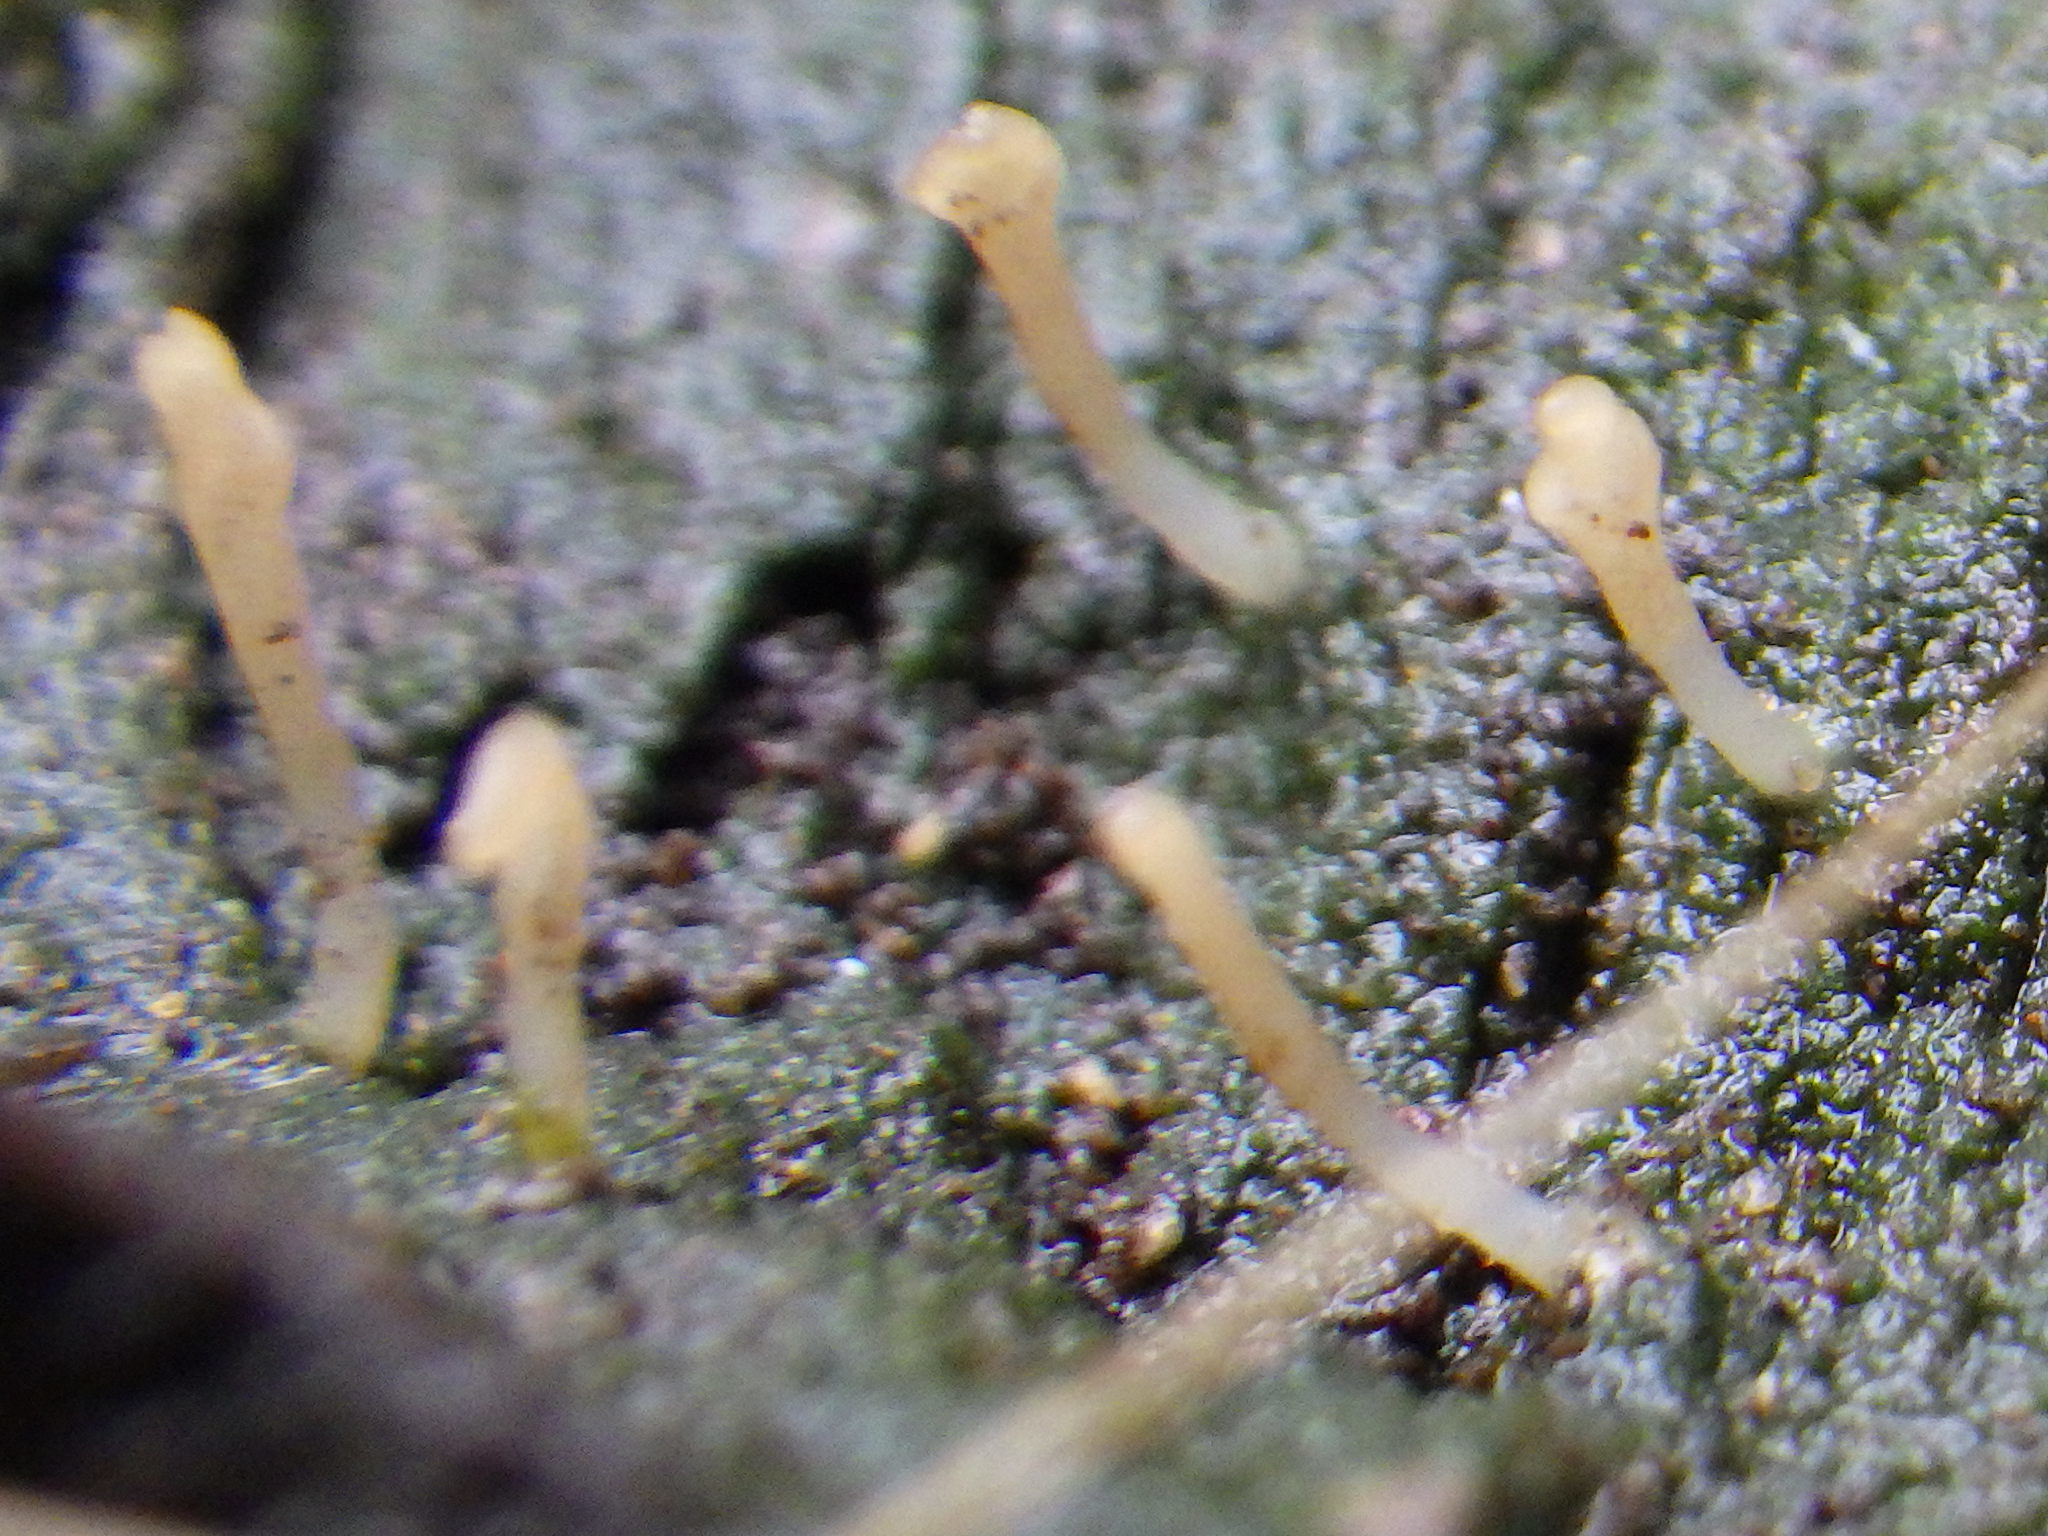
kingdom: Fungi
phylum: Basidiomycota
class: Agaricomycetes
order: Cantharellales
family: Hydnaceae
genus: Multiclavula
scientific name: Multiclavula mucida
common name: White green-algae coral
